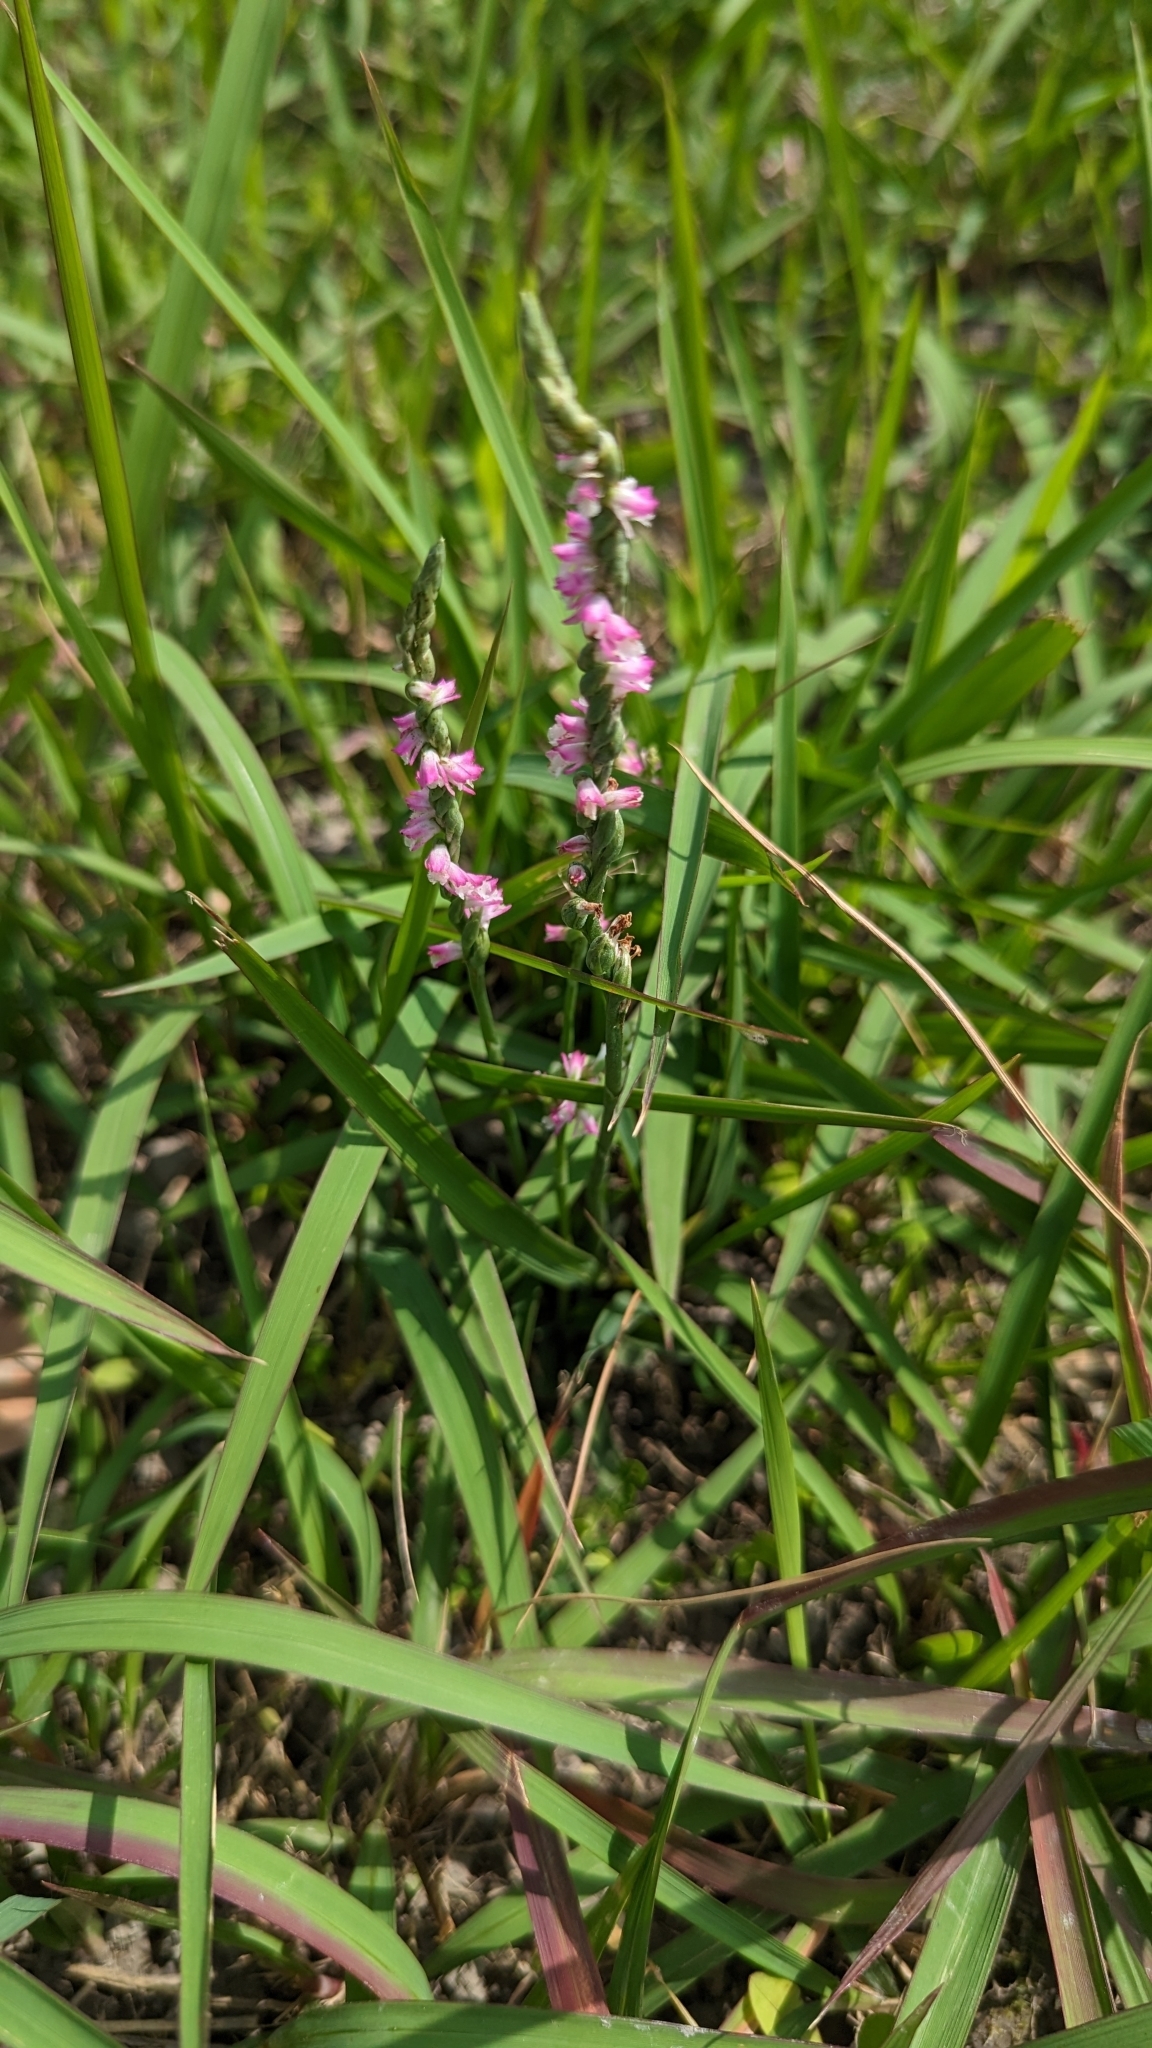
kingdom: Plantae
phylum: Tracheophyta
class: Liliopsida
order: Asparagales
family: Orchidaceae
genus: Spiranthes
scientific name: Spiranthes sinensis
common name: Chinese spiranthes
